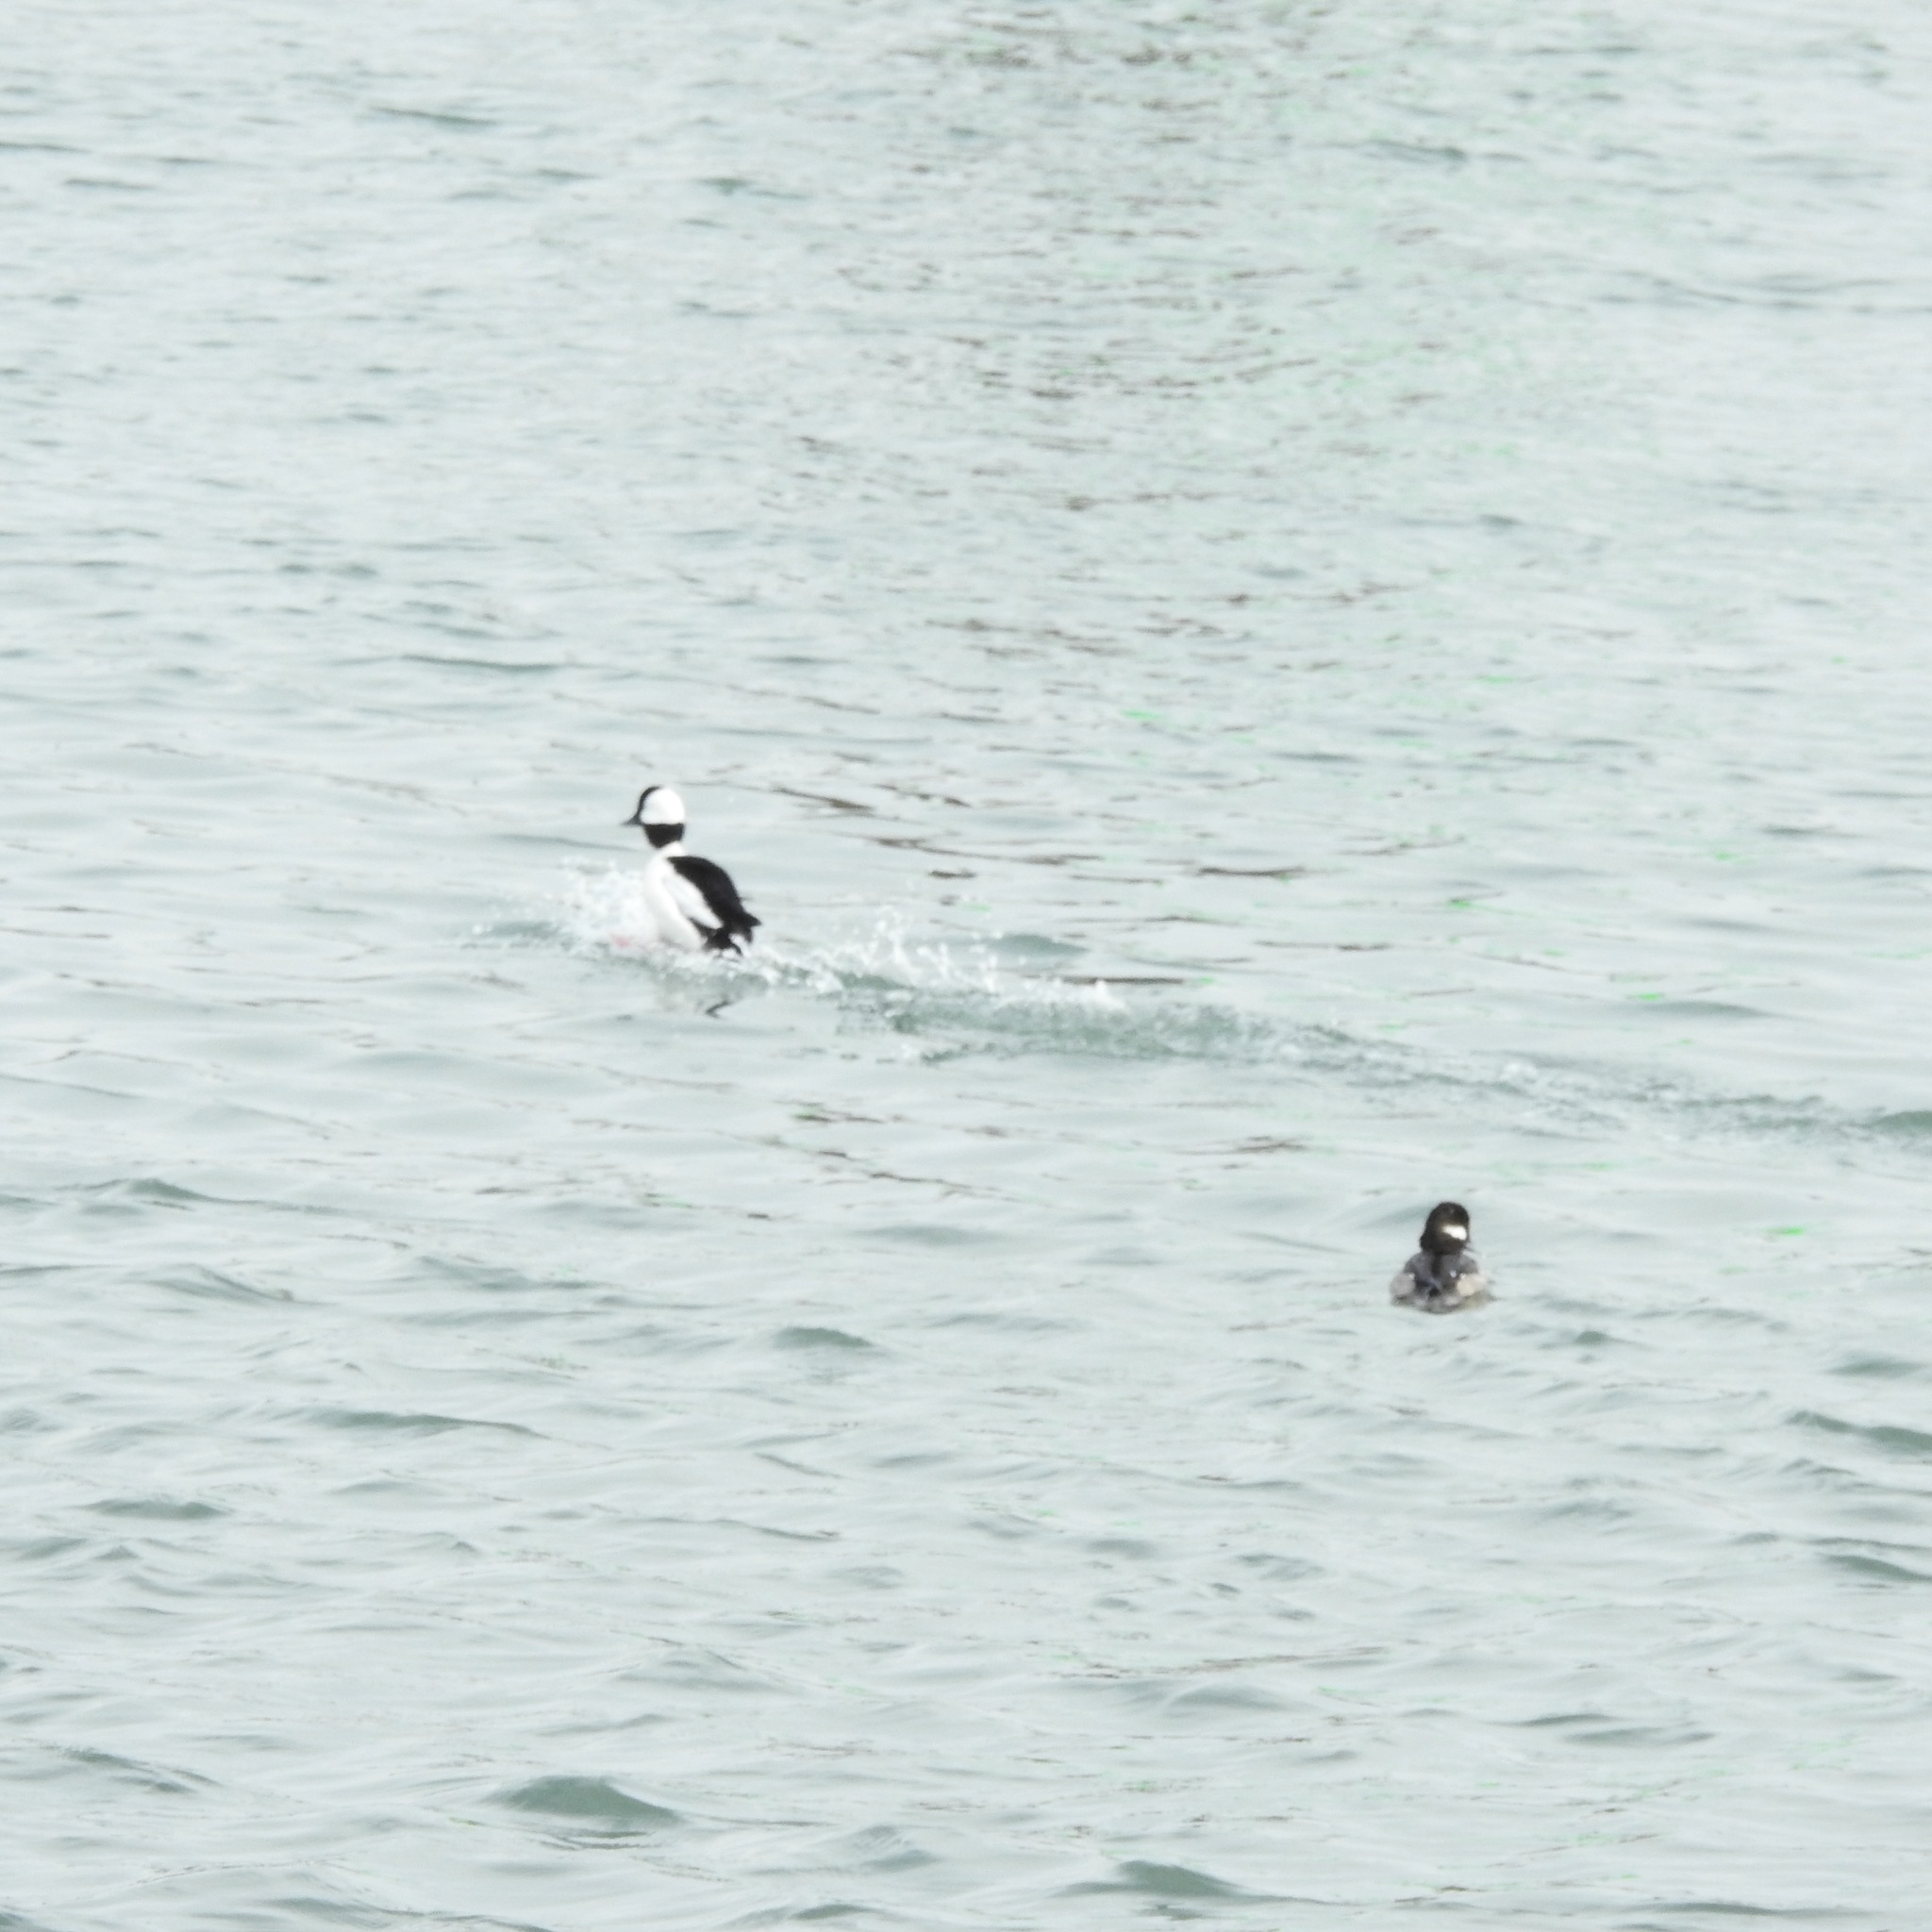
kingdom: Animalia
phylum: Chordata
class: Aves
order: Anseriformes
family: Anatidae
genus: Bucephala
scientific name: Bucephala albeola
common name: Bufflehead
